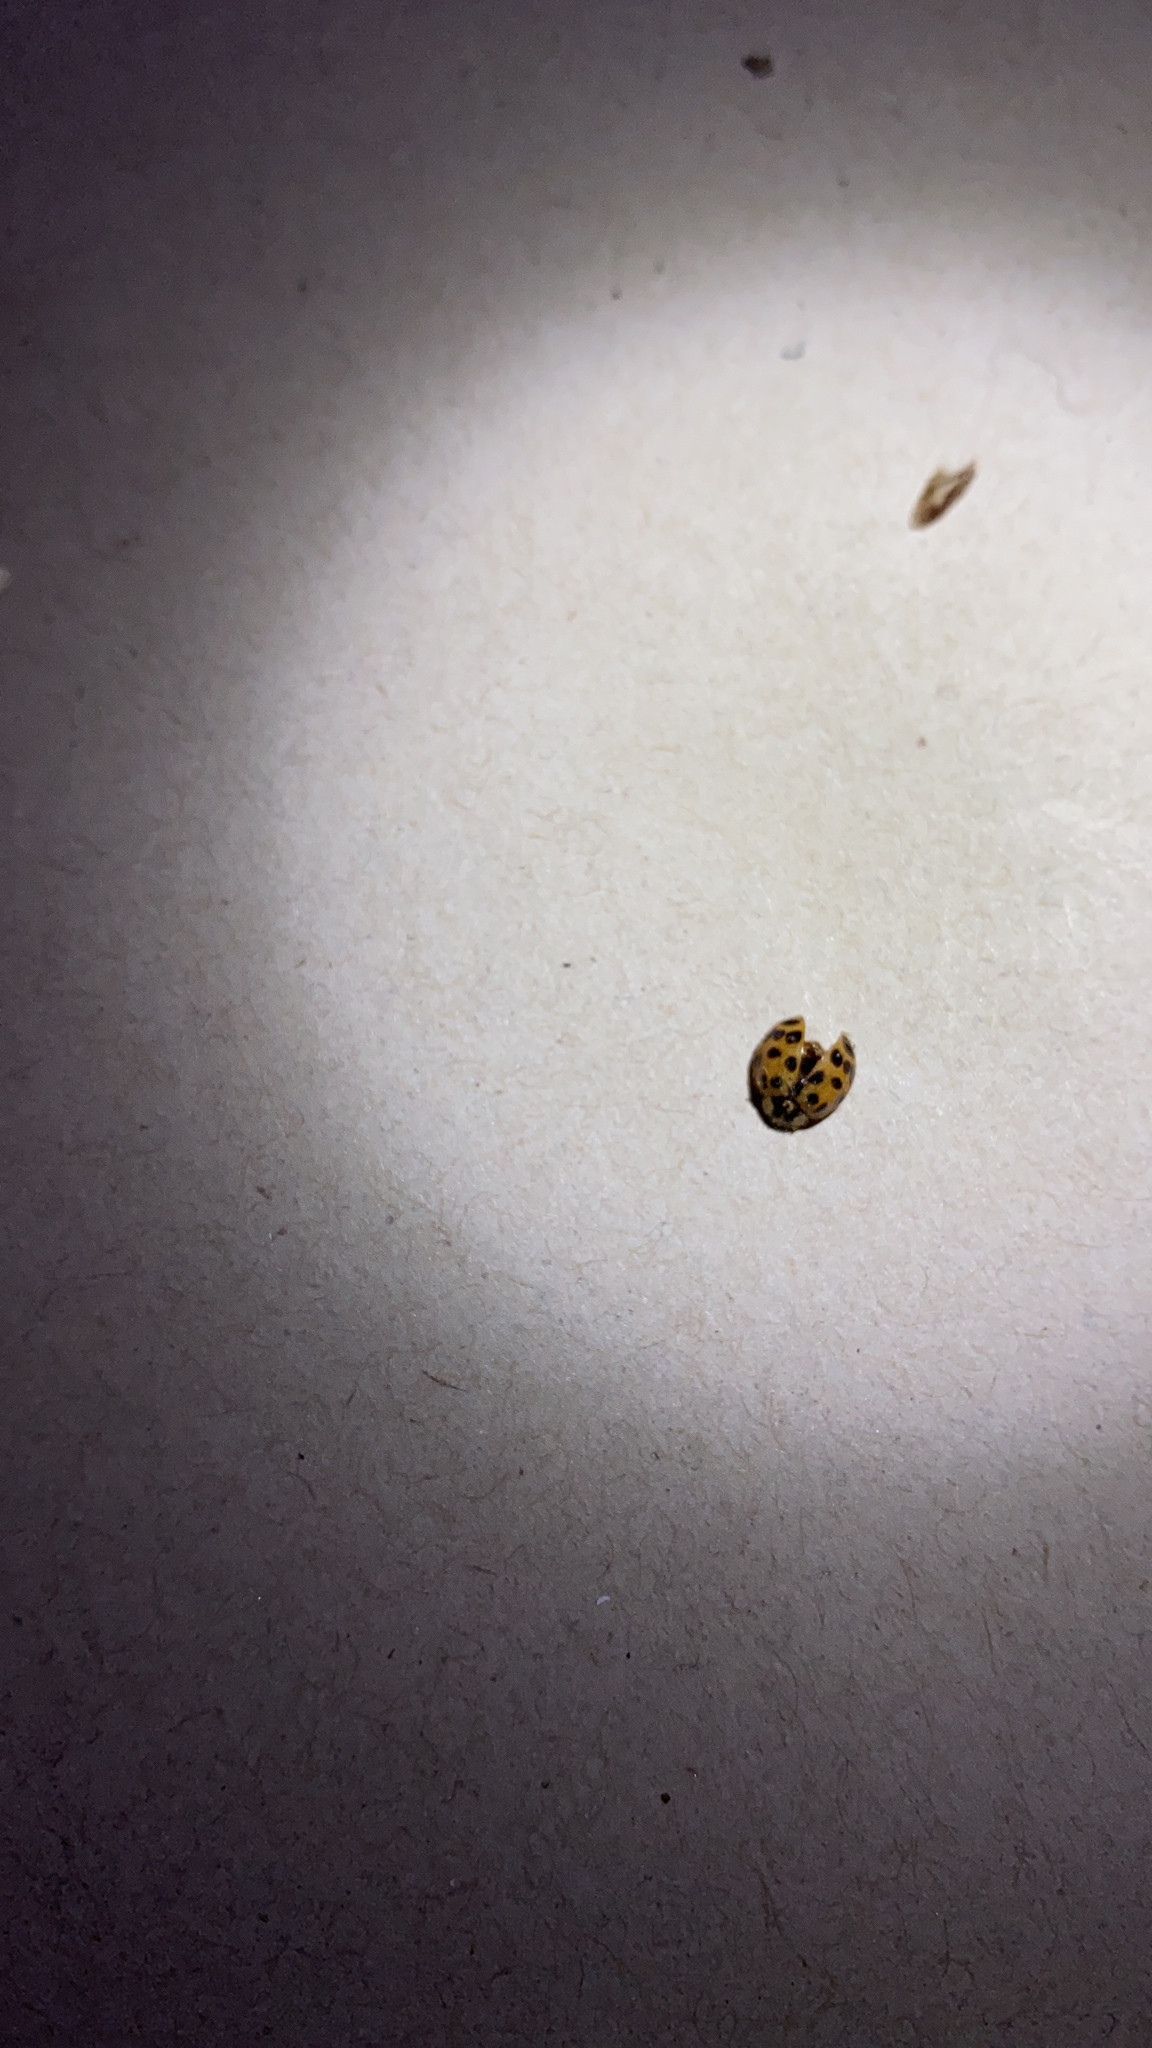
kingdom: Animalia
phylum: Arthropoda
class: Insecta
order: Coleoptera
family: Coccinellidae
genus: Harmonia
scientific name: Harmonia axyridis
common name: Harlequin ladybird
